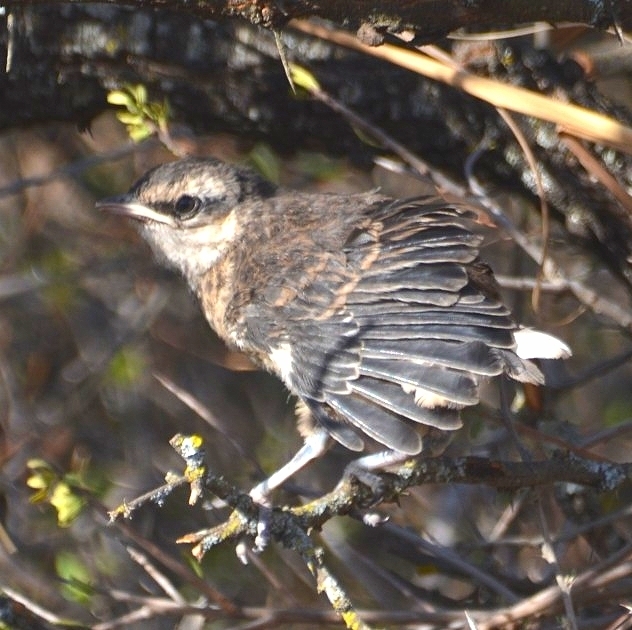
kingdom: Animalia
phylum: Chordata
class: Aves
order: Passeriformes
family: Mimidae
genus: Mimus
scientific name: Mimus saturninus
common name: Chalk-browed mockingbird
